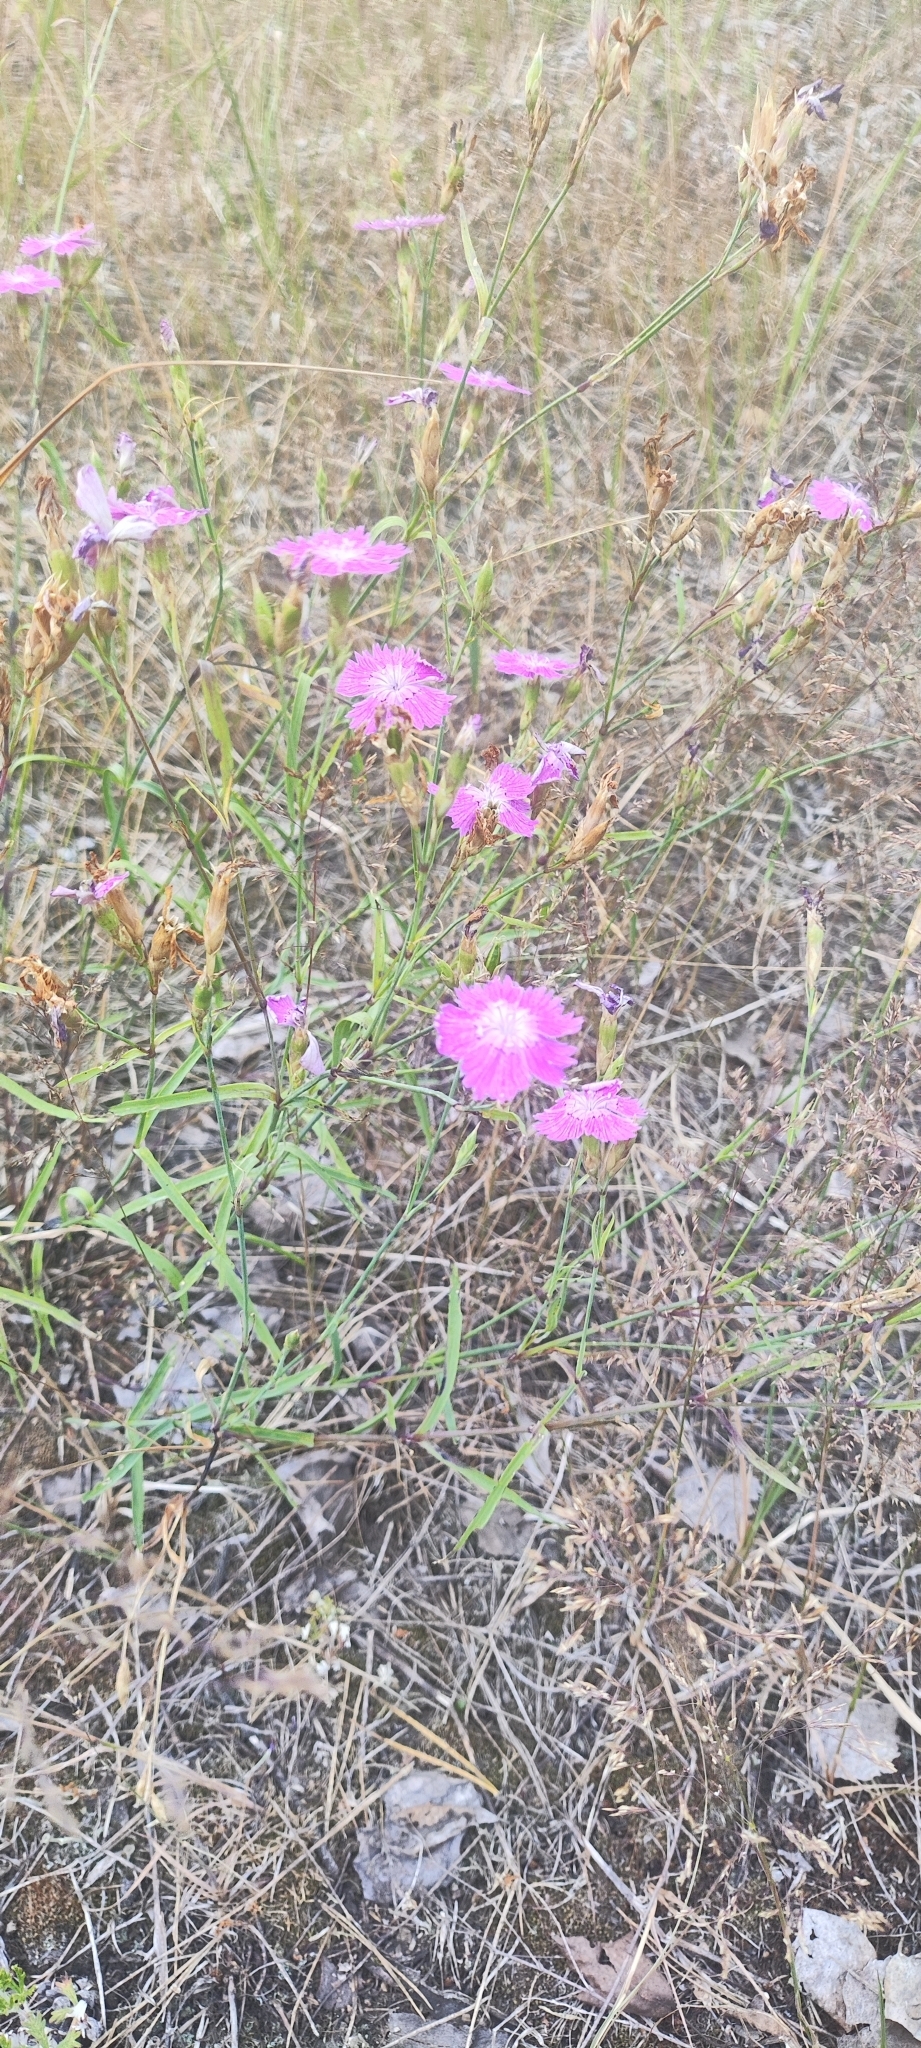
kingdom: Plantae
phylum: Tracheophyta
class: Magnoliopsida
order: Caryophyllales
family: Caryophyllaceae
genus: Dianthus
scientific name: Dianthus chinensis
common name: Rainbow pink
